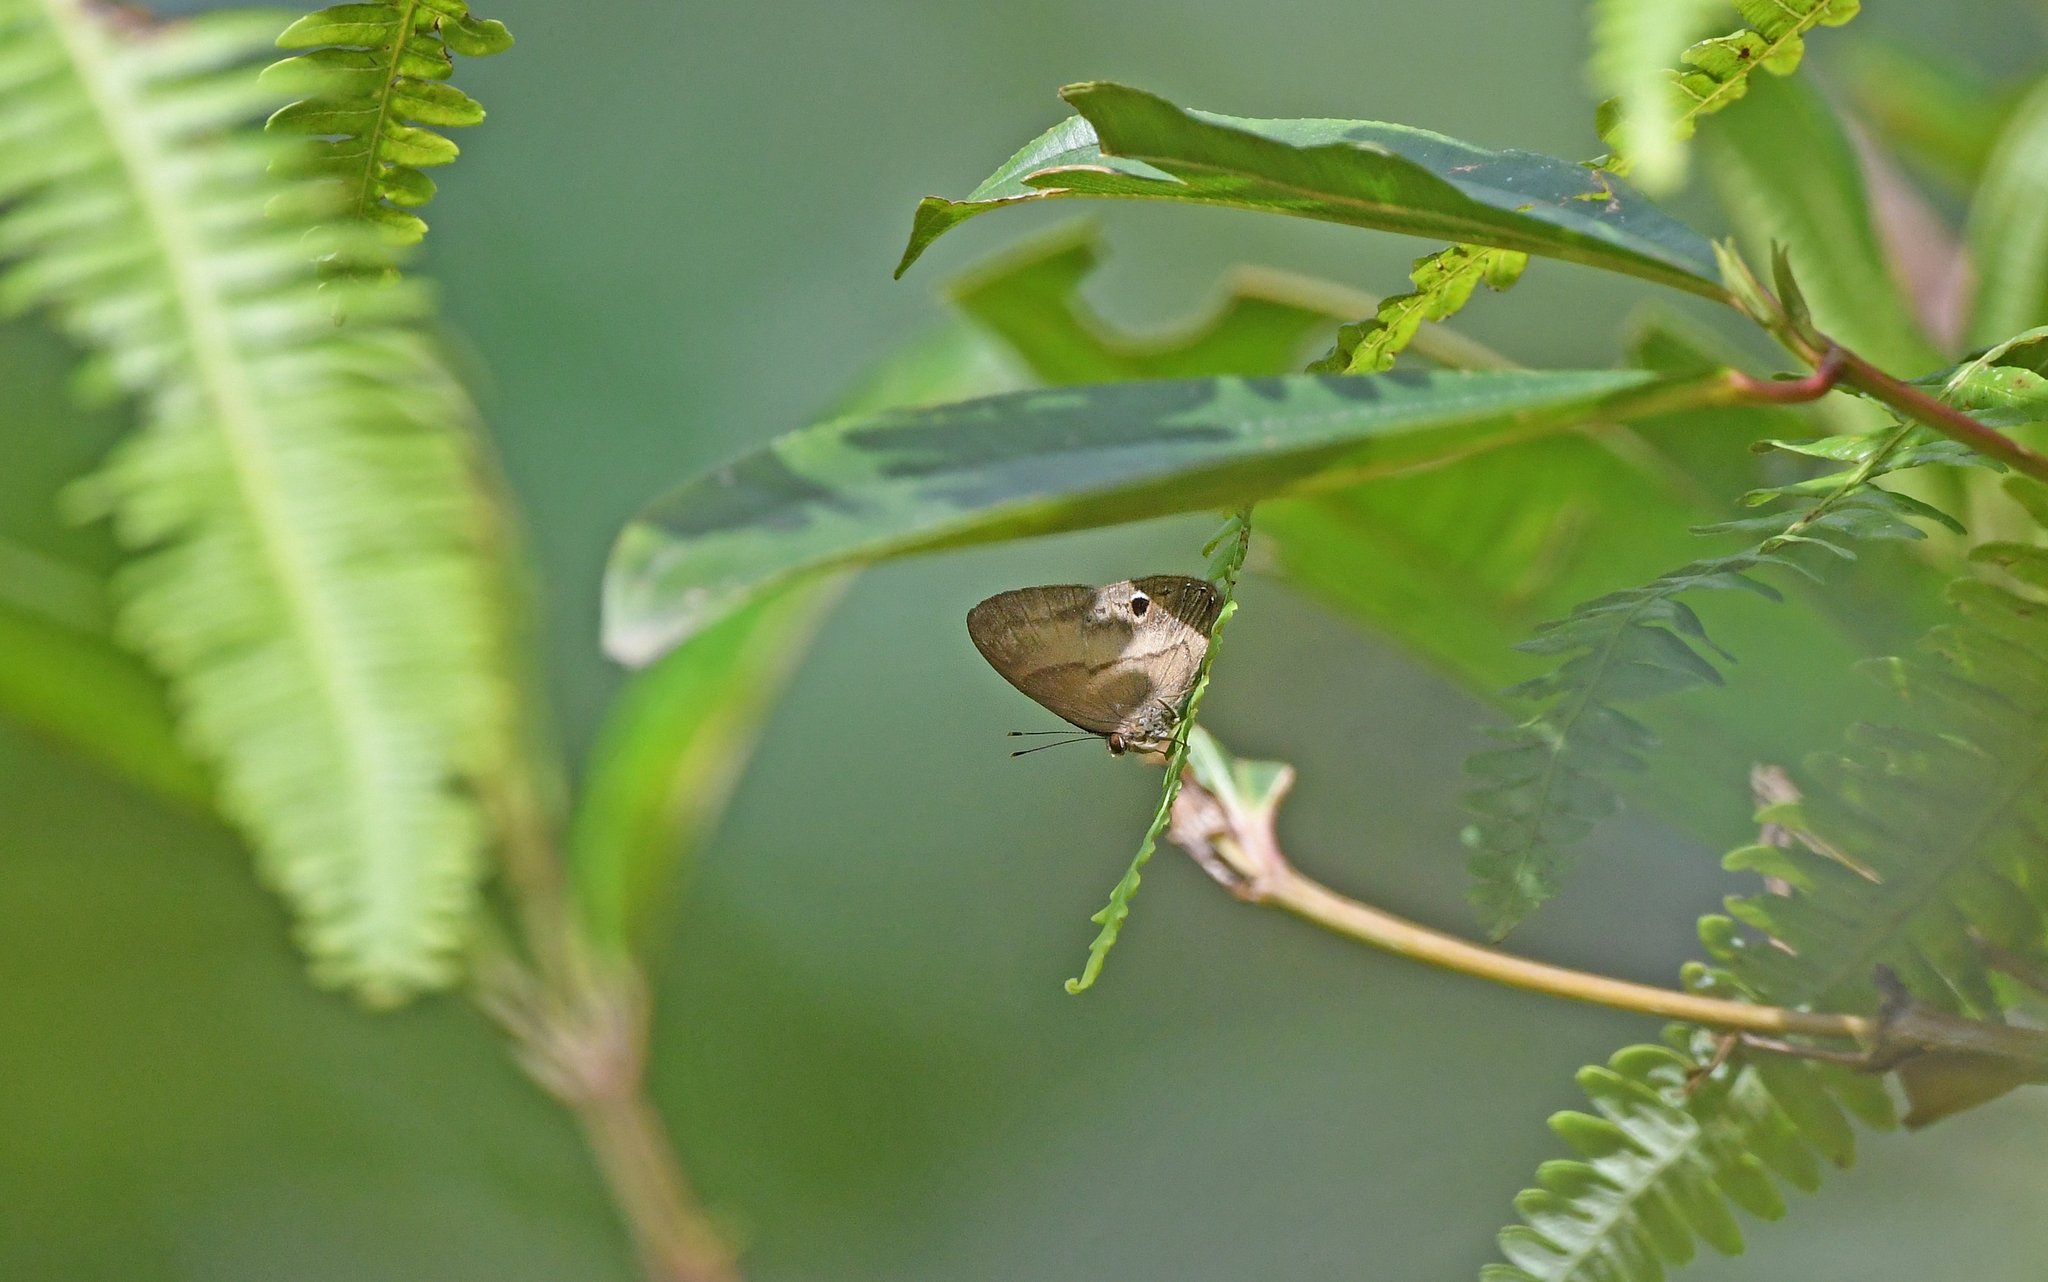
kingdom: Animalia
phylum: Arthropoda
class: Insecta
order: Lepidoptera
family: Lycaenidae
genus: Euselasia
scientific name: Euselasia ella
